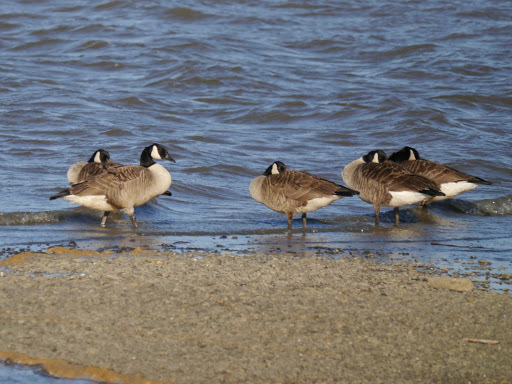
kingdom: Animalia
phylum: Chordata
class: Aves
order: Anseriformes
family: Anatidae
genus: Branta
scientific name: Branta canadensis
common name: Canada goose
